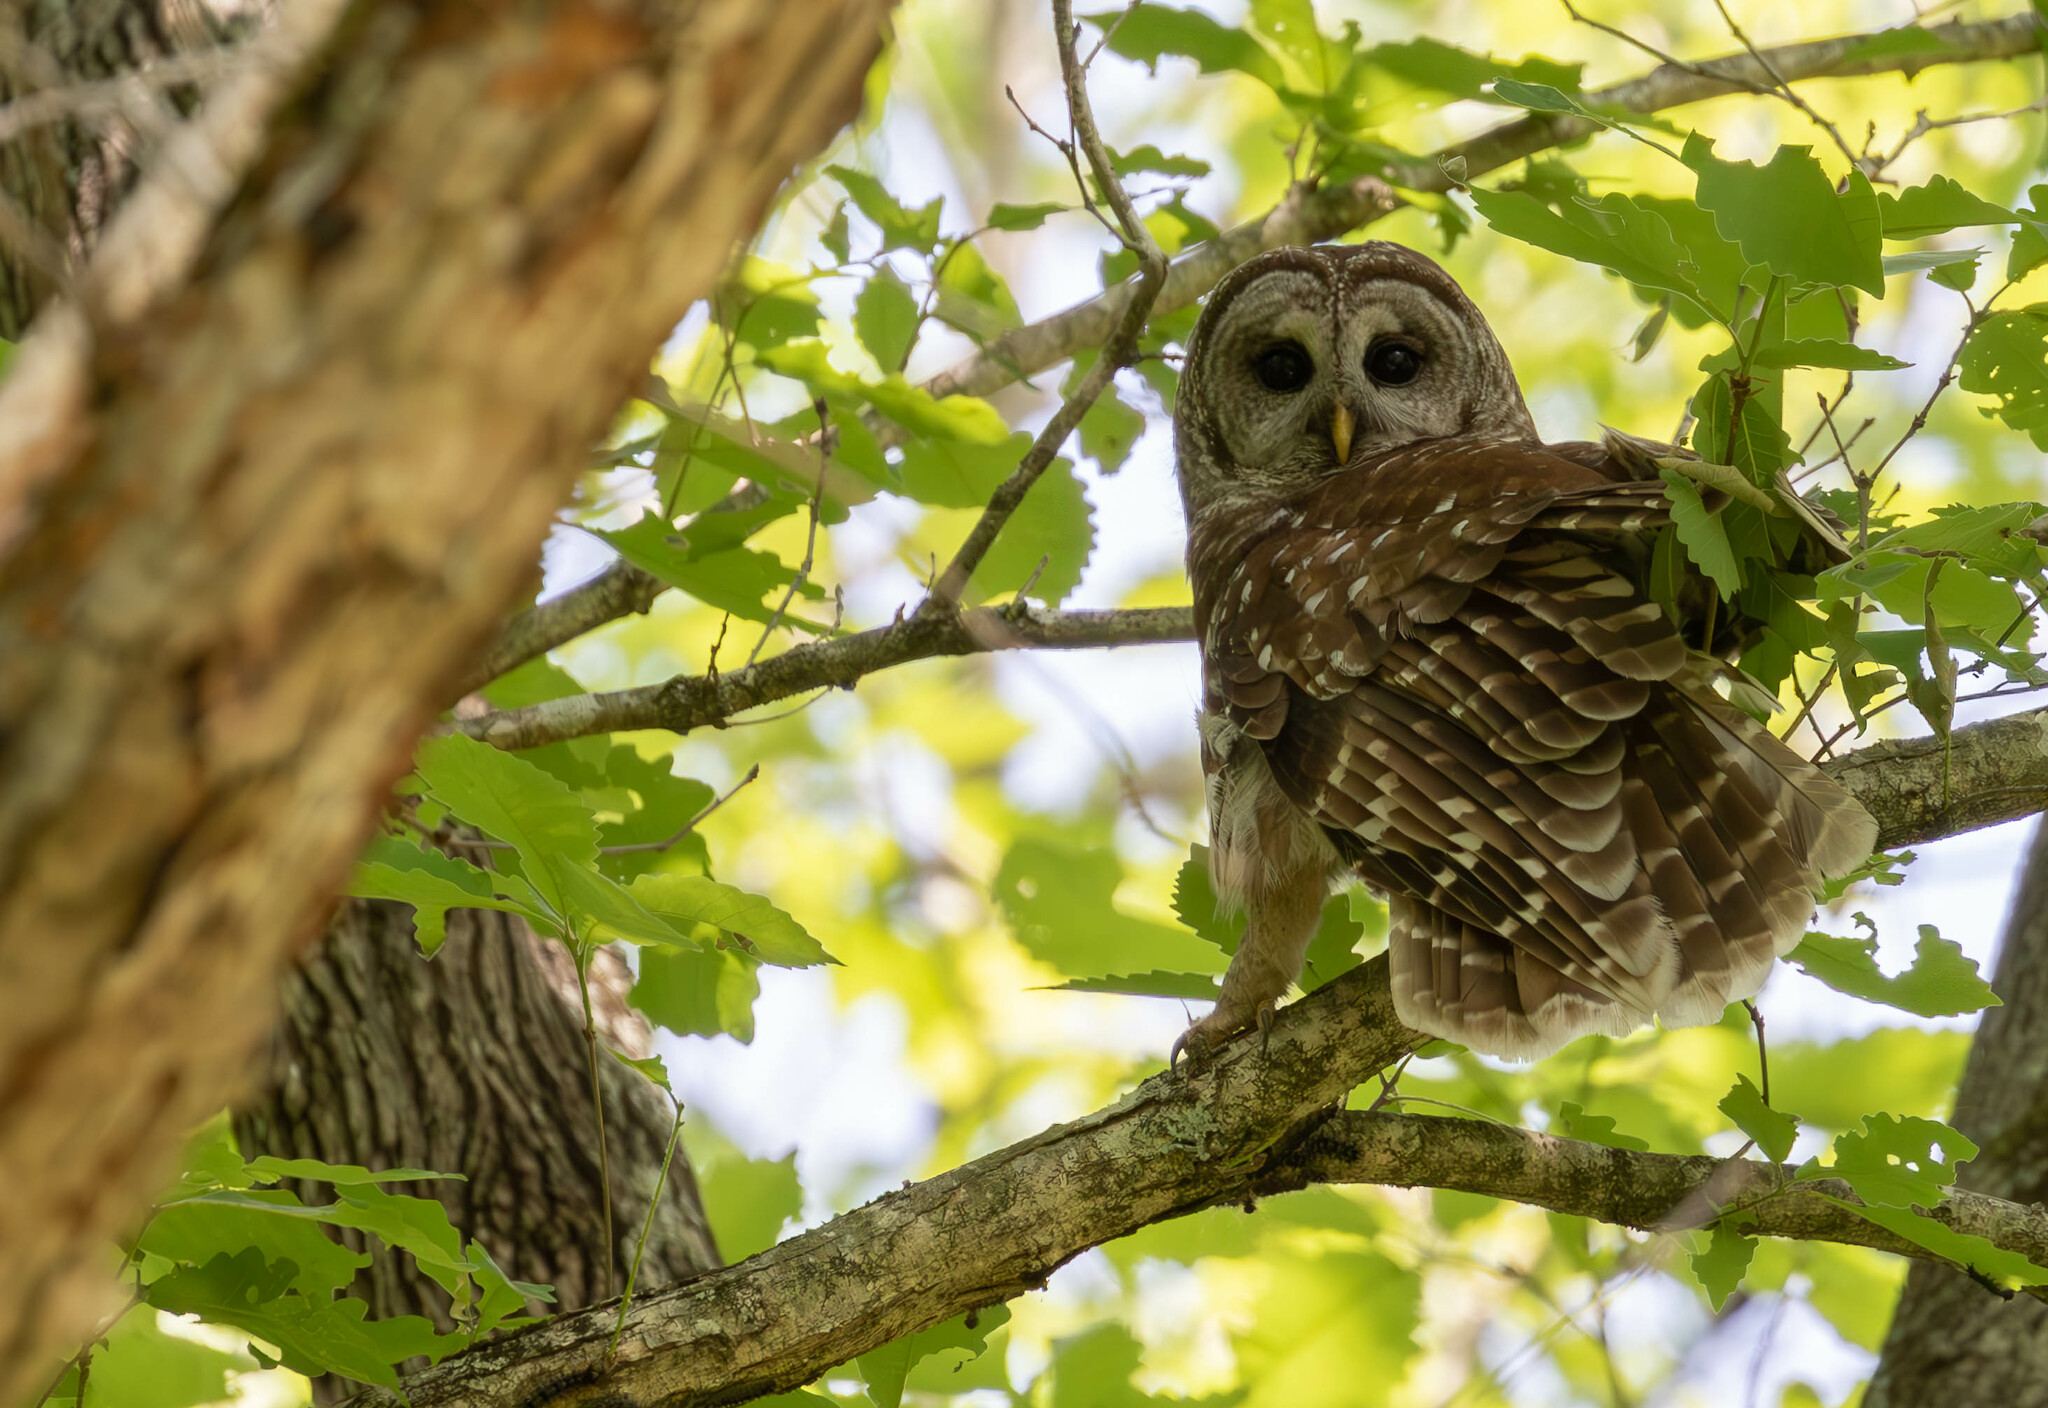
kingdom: Animalia
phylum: Chordata
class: Aves
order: Strigiformes
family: Strigidae
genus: Strix
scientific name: Strix varia
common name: Barred owl
